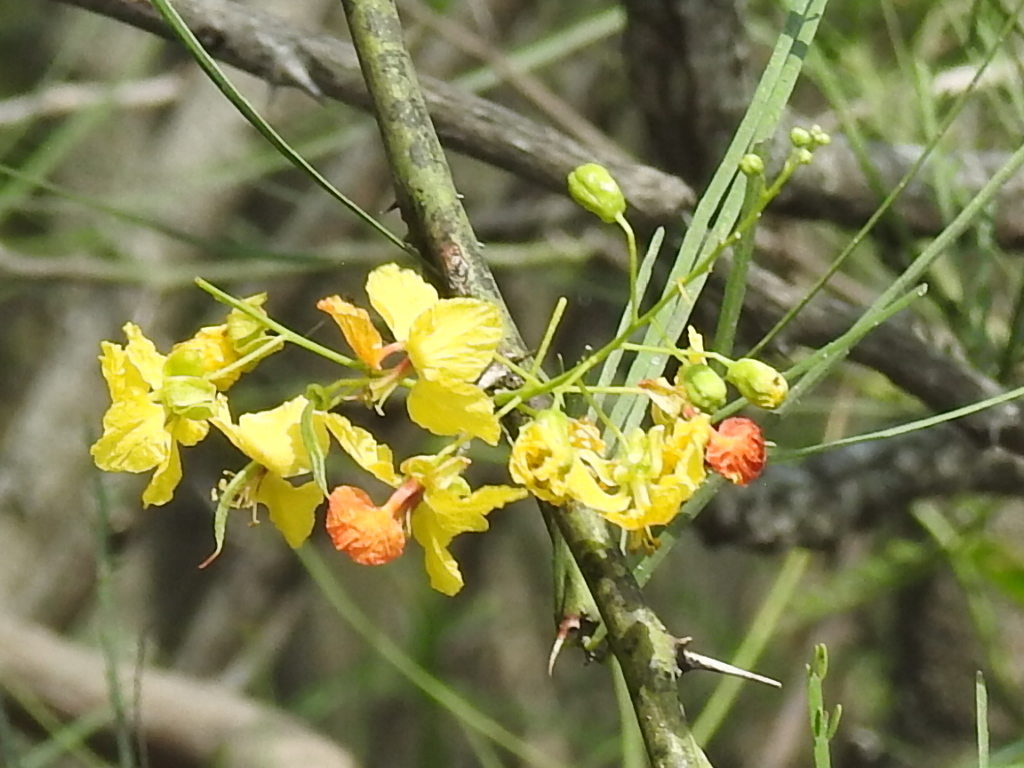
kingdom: Plantae
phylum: Tracheophyta
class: Magnoliopsida
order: Fabales
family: Fabaceae
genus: Parkinsonia
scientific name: Parkinsonia aculeata
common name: Jerusalem thorn
